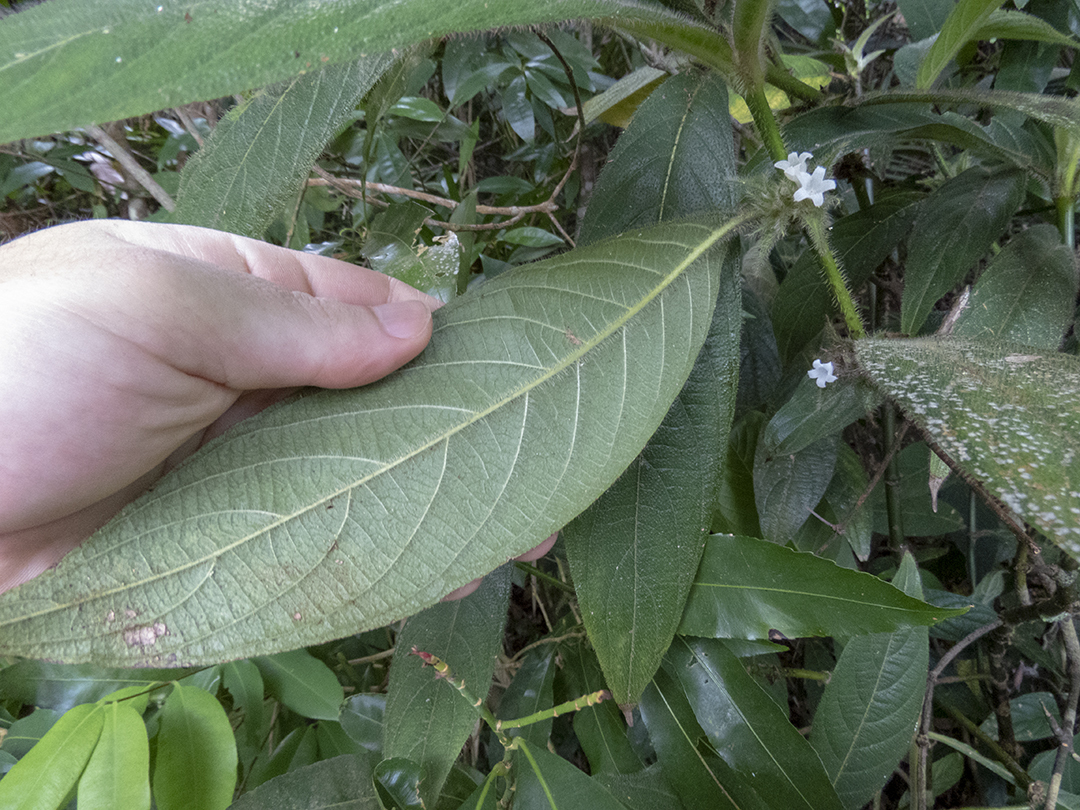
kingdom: Plantae
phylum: Tracheophyta
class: Magnoliopsida
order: Gentianales
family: Rubiaceae
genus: Lasianthus
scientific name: Lasianthus cyanocarpus
